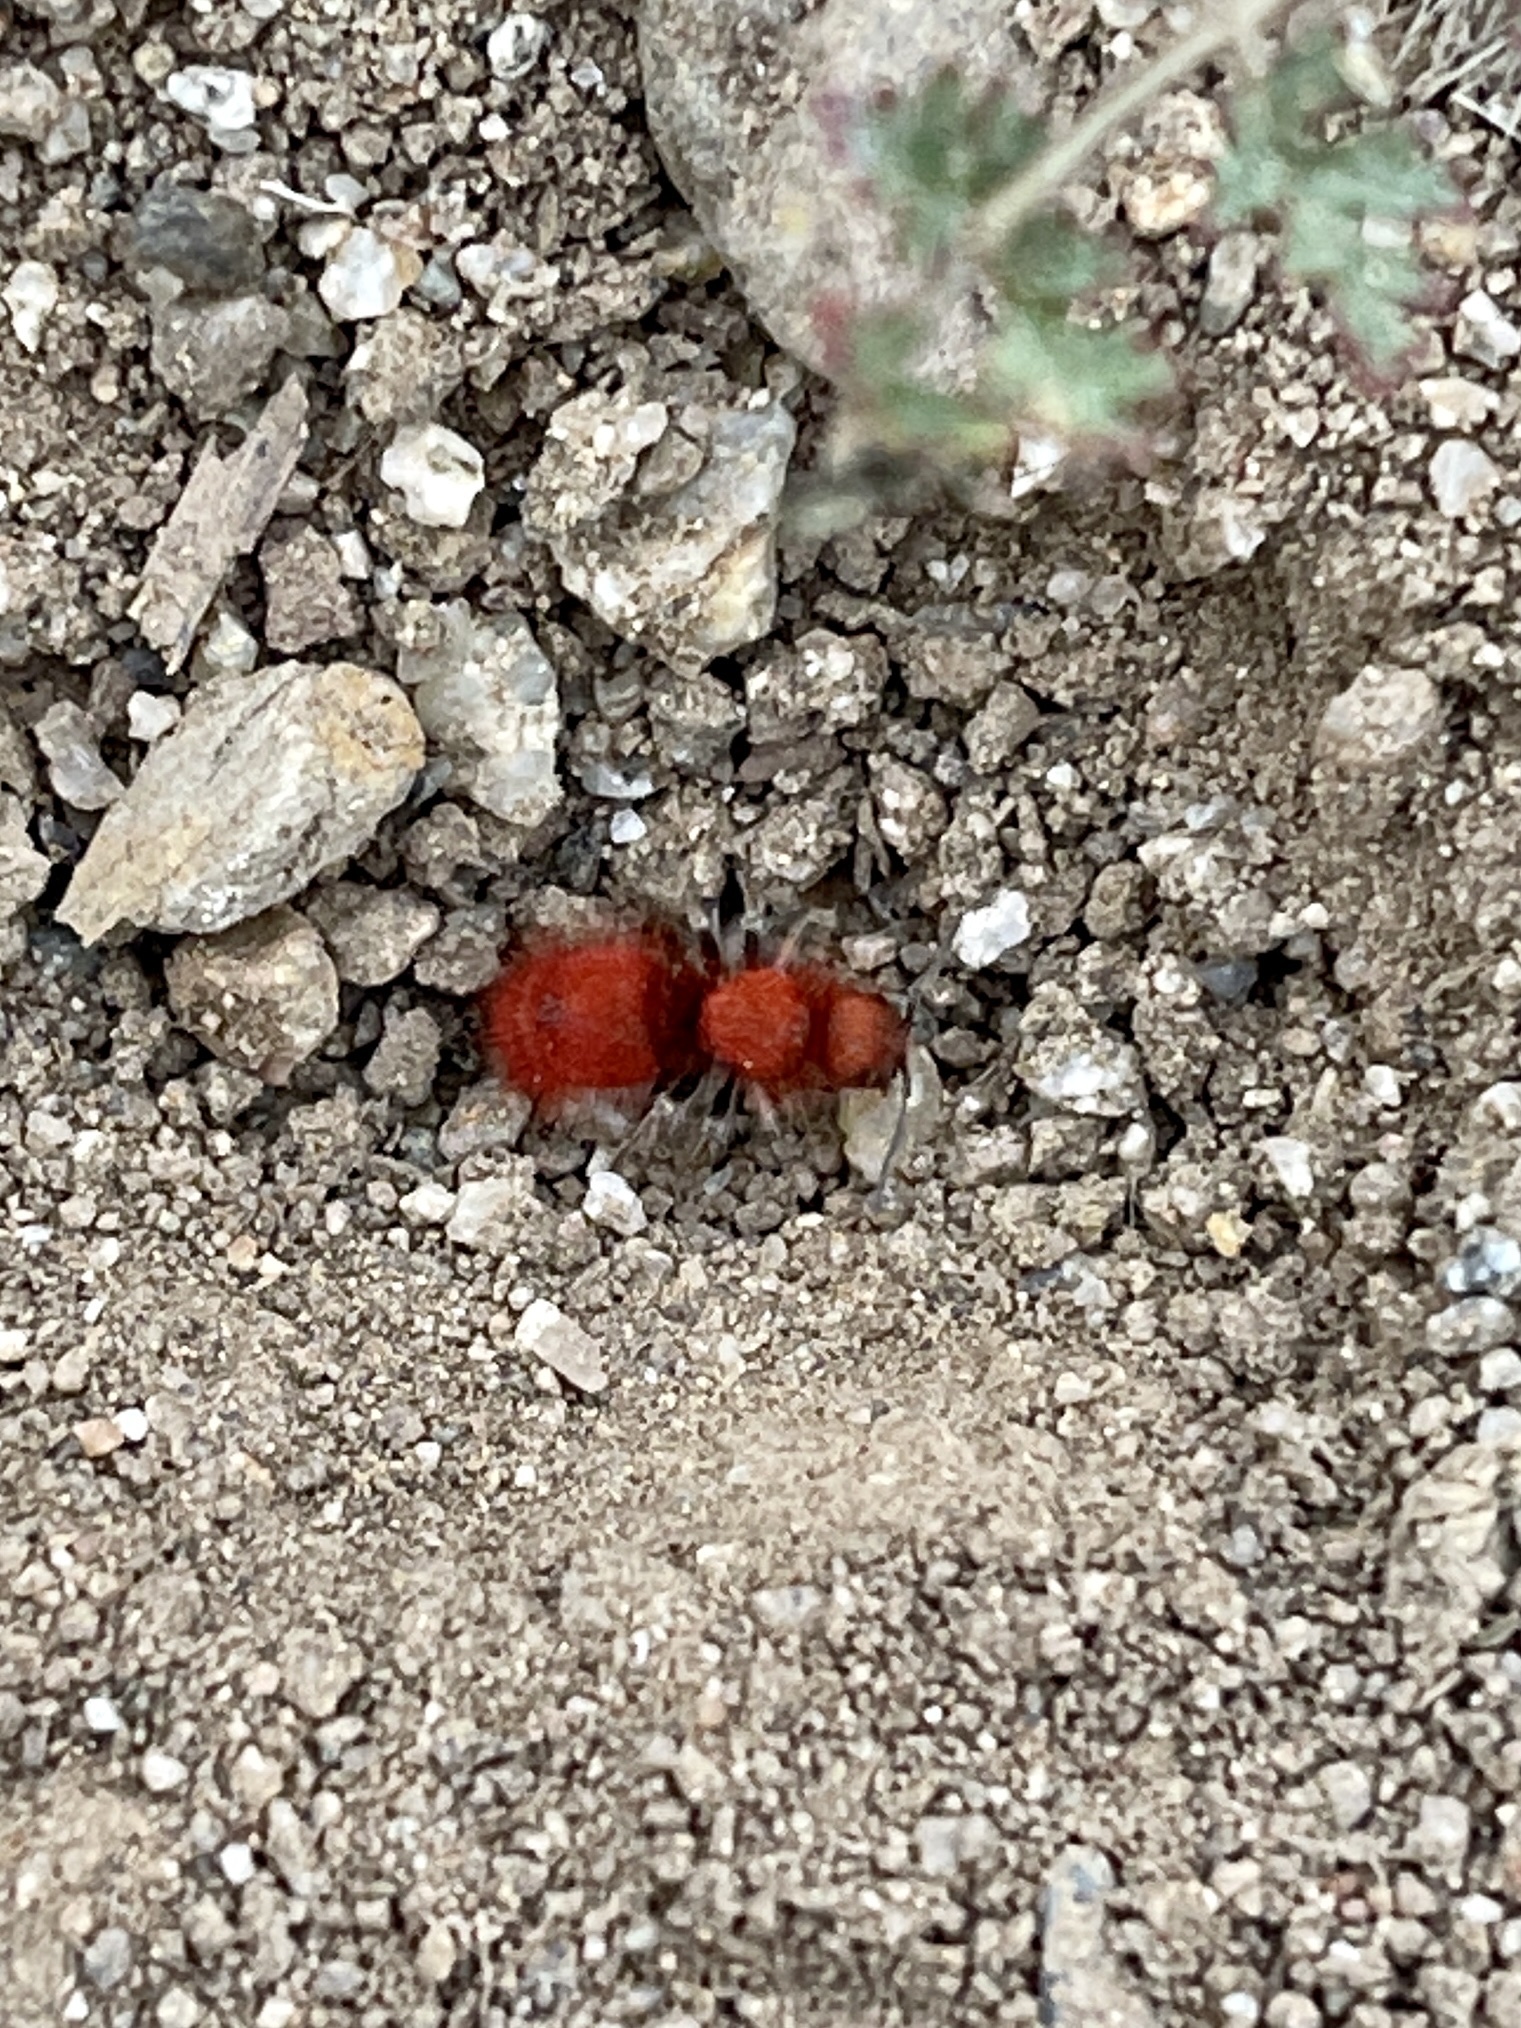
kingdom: Animalia
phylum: Arthropoda
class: Insecta
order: Hymenoptera
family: Mutillidae
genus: Sphaeropthalma
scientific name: Sphaeropthalma unicolor
